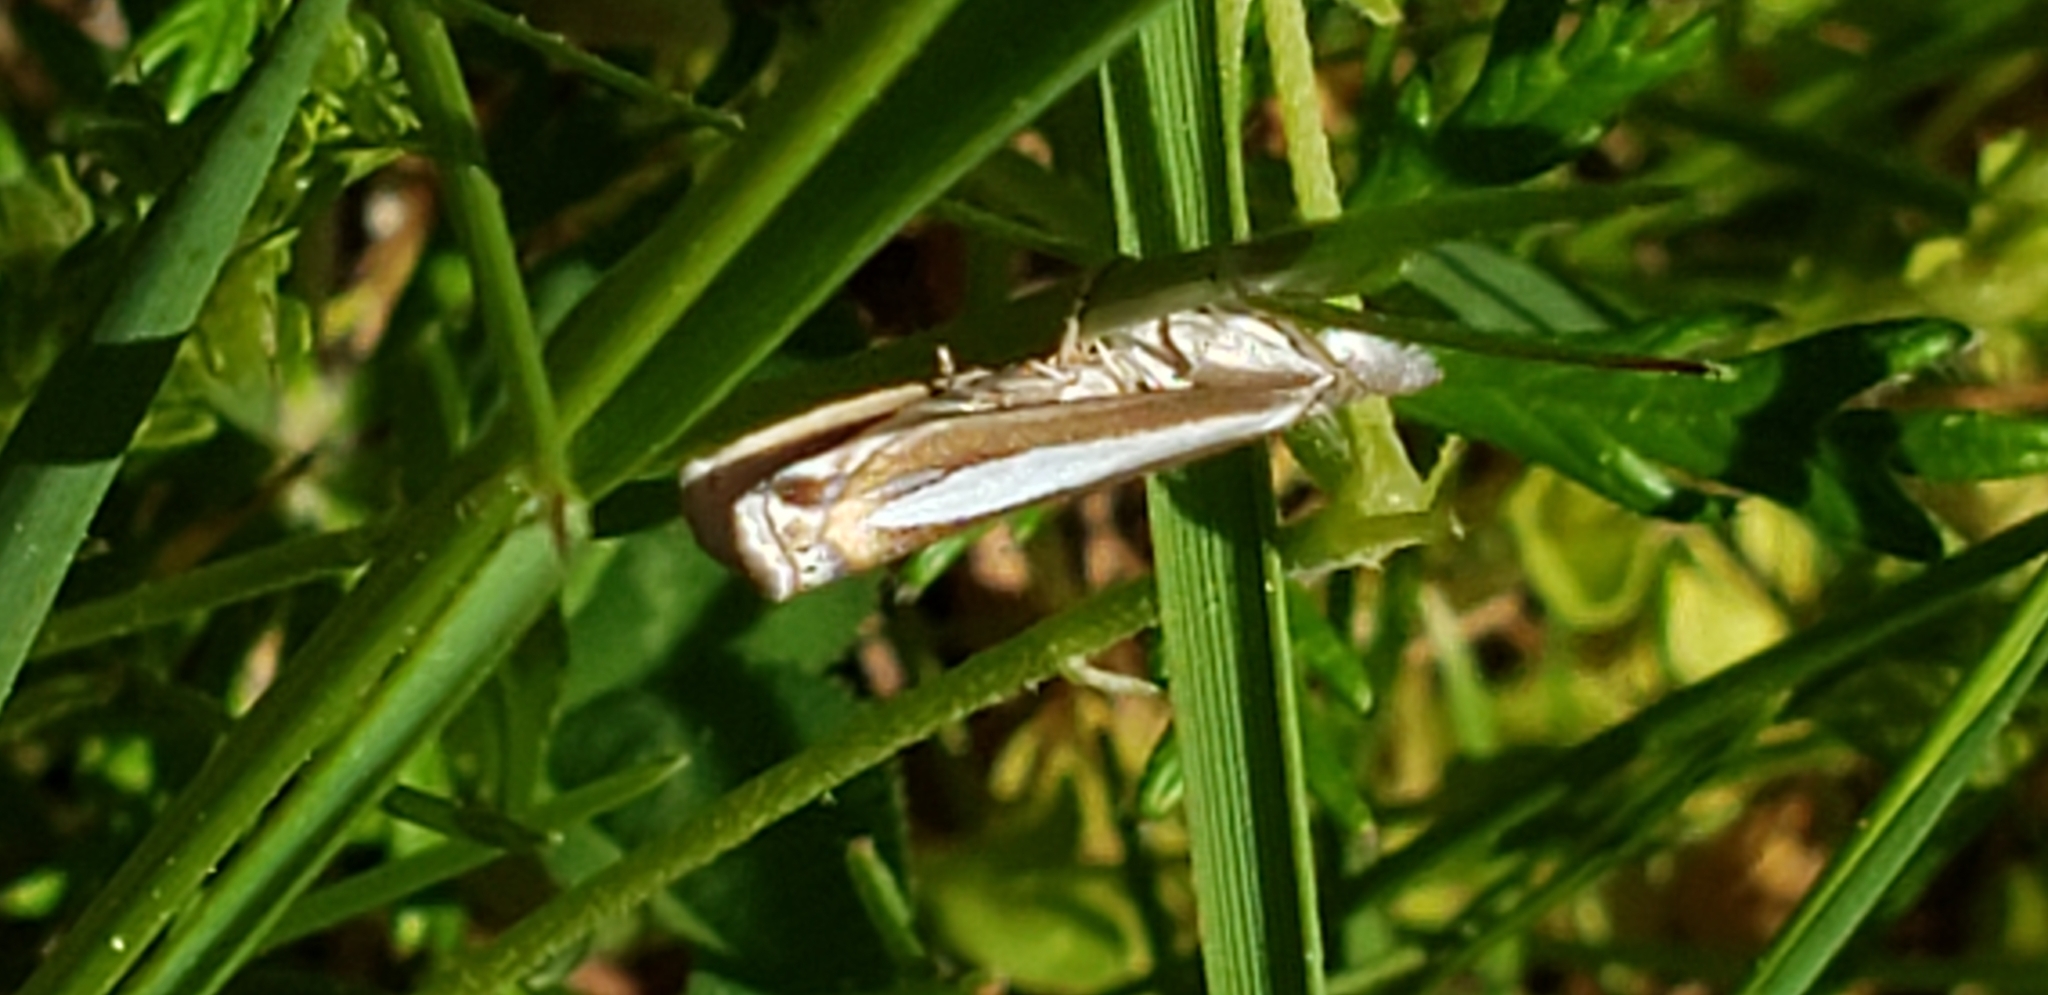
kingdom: Animalia
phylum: Arthropoda
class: Insecta
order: Lepidoptera
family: Crambidae
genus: Crambus
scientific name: Crambus praefectellus
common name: Common grass-veneer
